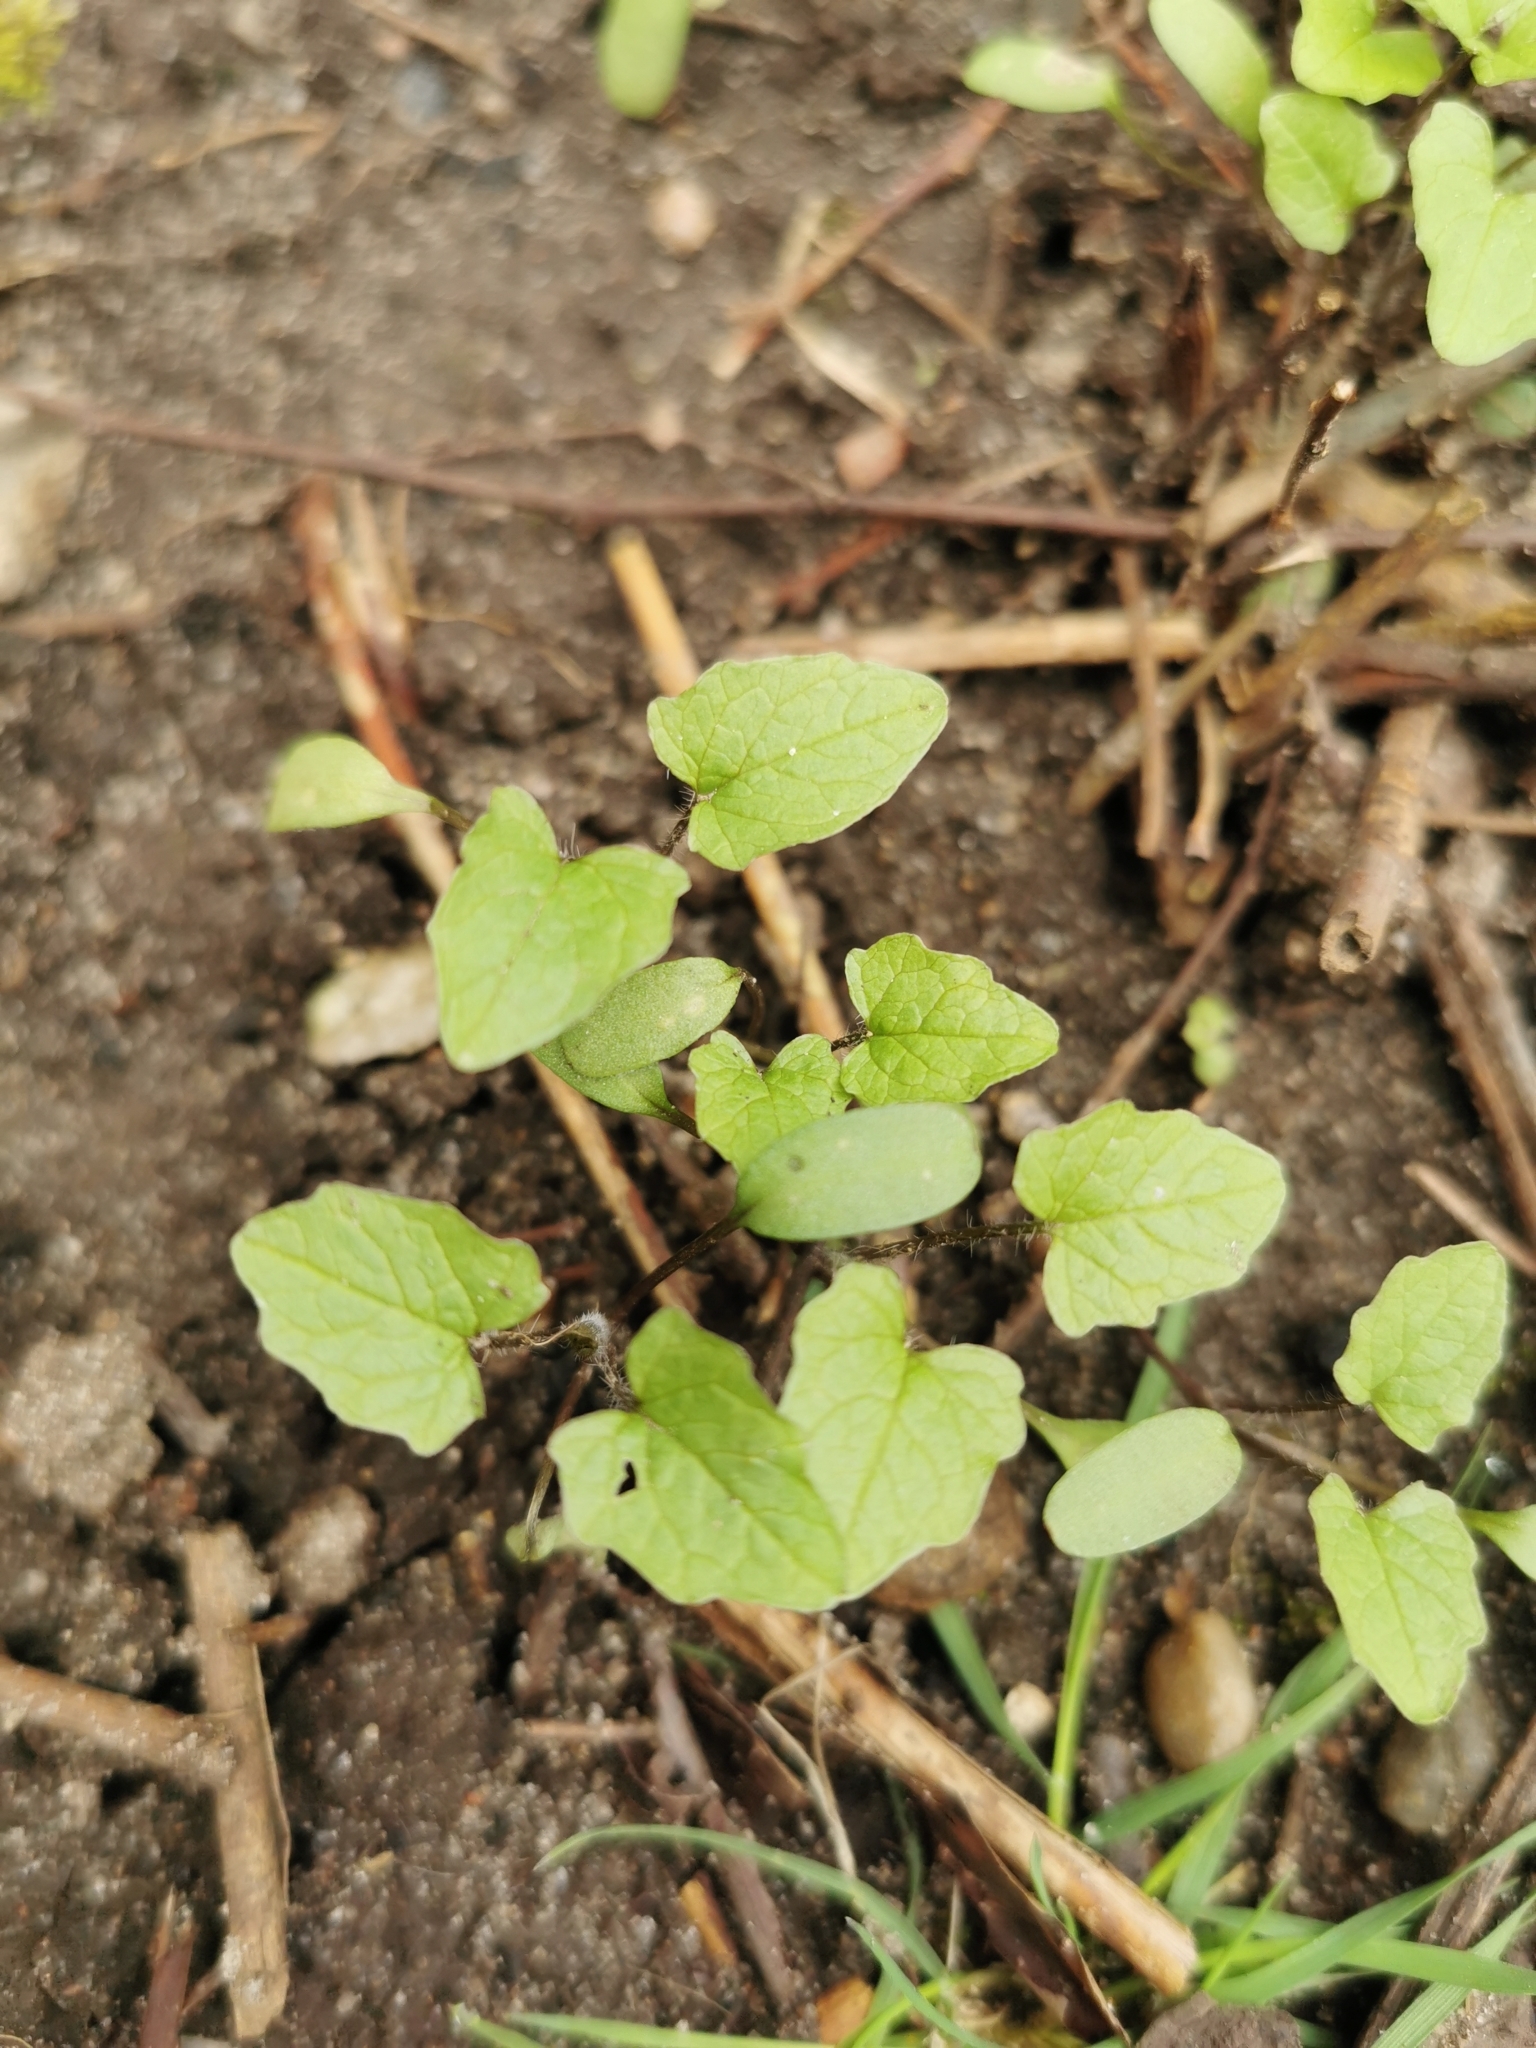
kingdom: Plantae
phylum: Tracheophyta
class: Magnoliopsida
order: Brassicales
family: Brassicaceae
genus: Alliaria
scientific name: Alliaria petiolata
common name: Garlic mustard
